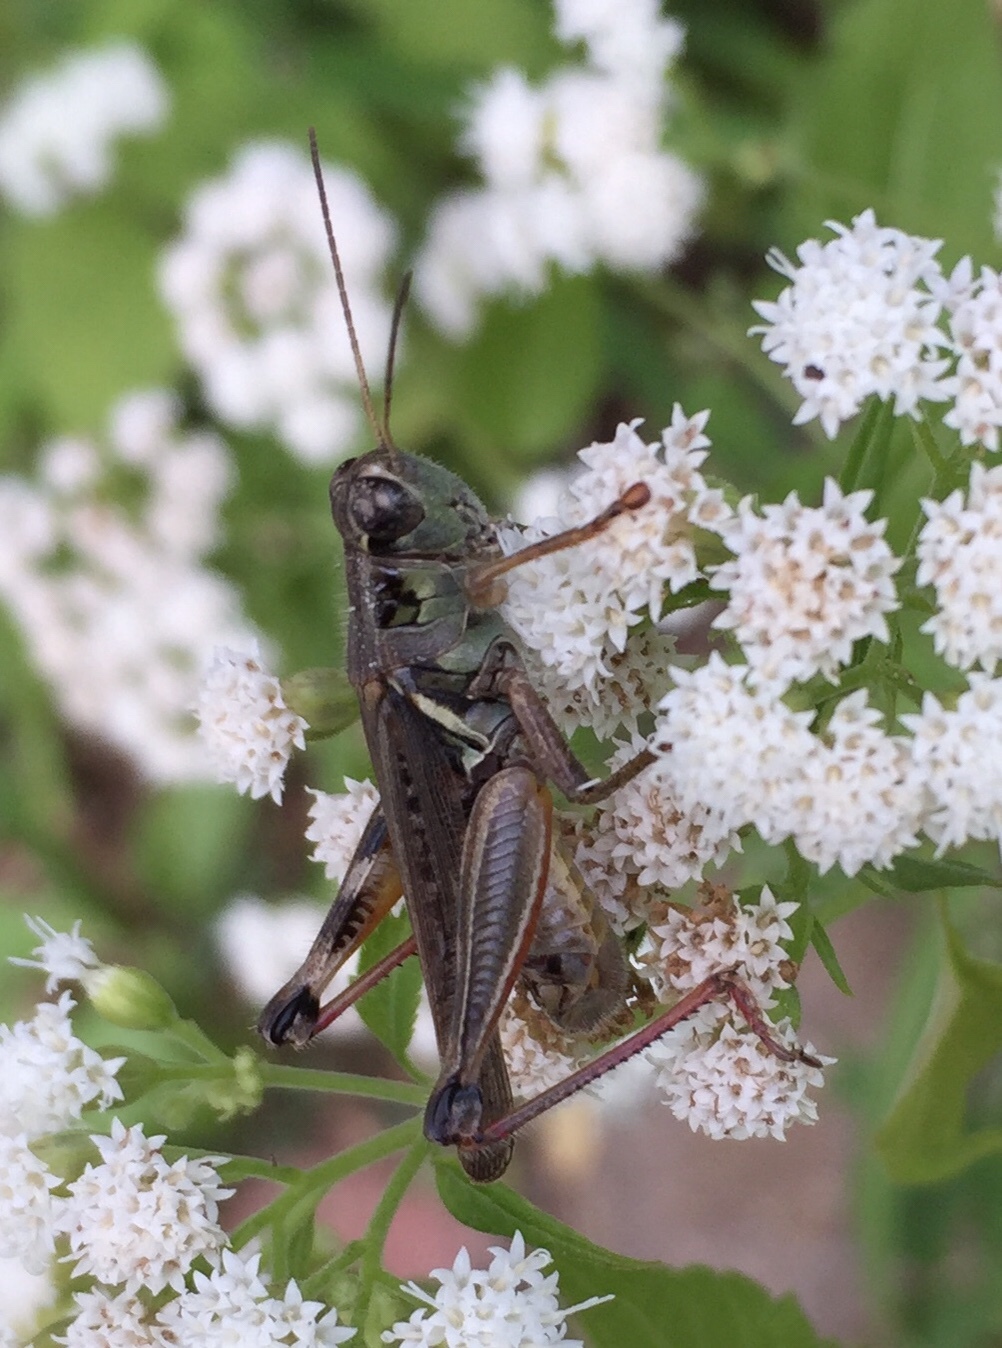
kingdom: Animalia
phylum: Arthropoda
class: Insecta
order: Orthoptera
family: Acrididae
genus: Melanoplus
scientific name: Melanoplus femurrubrum
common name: Red-legged grasshopper
